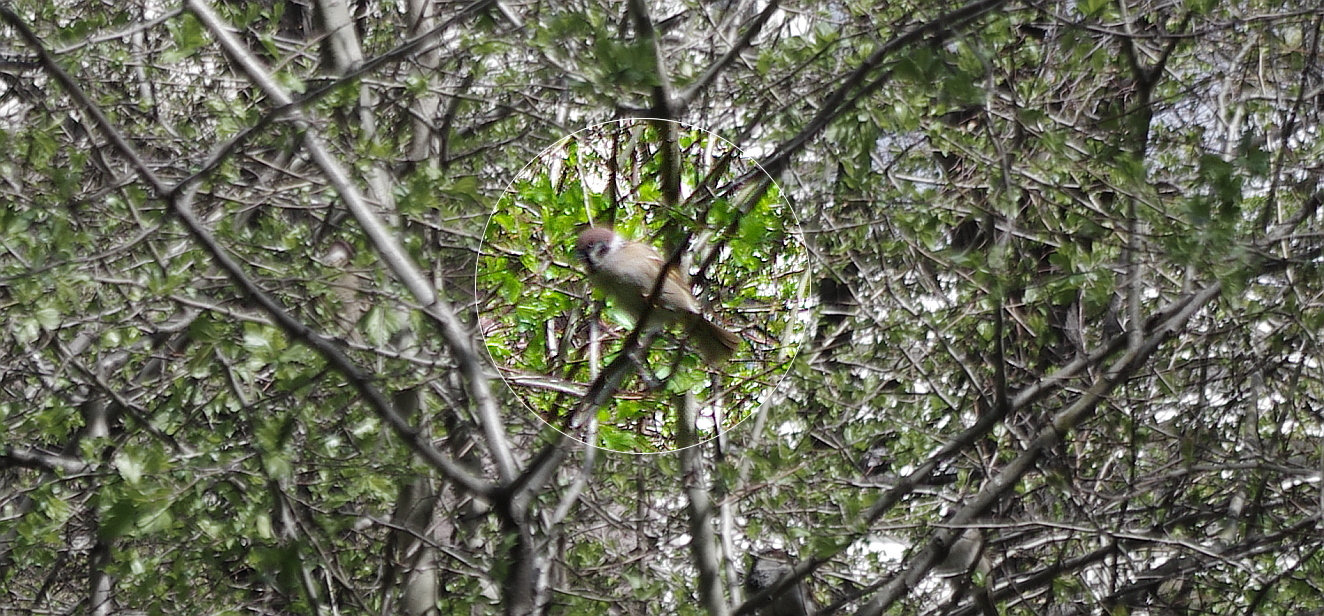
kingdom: Animalia
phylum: Chordata
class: Aves
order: Passeriformes
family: Passeridae
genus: Passer
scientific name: Passer montanus
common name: Eurasian tree sparrow
